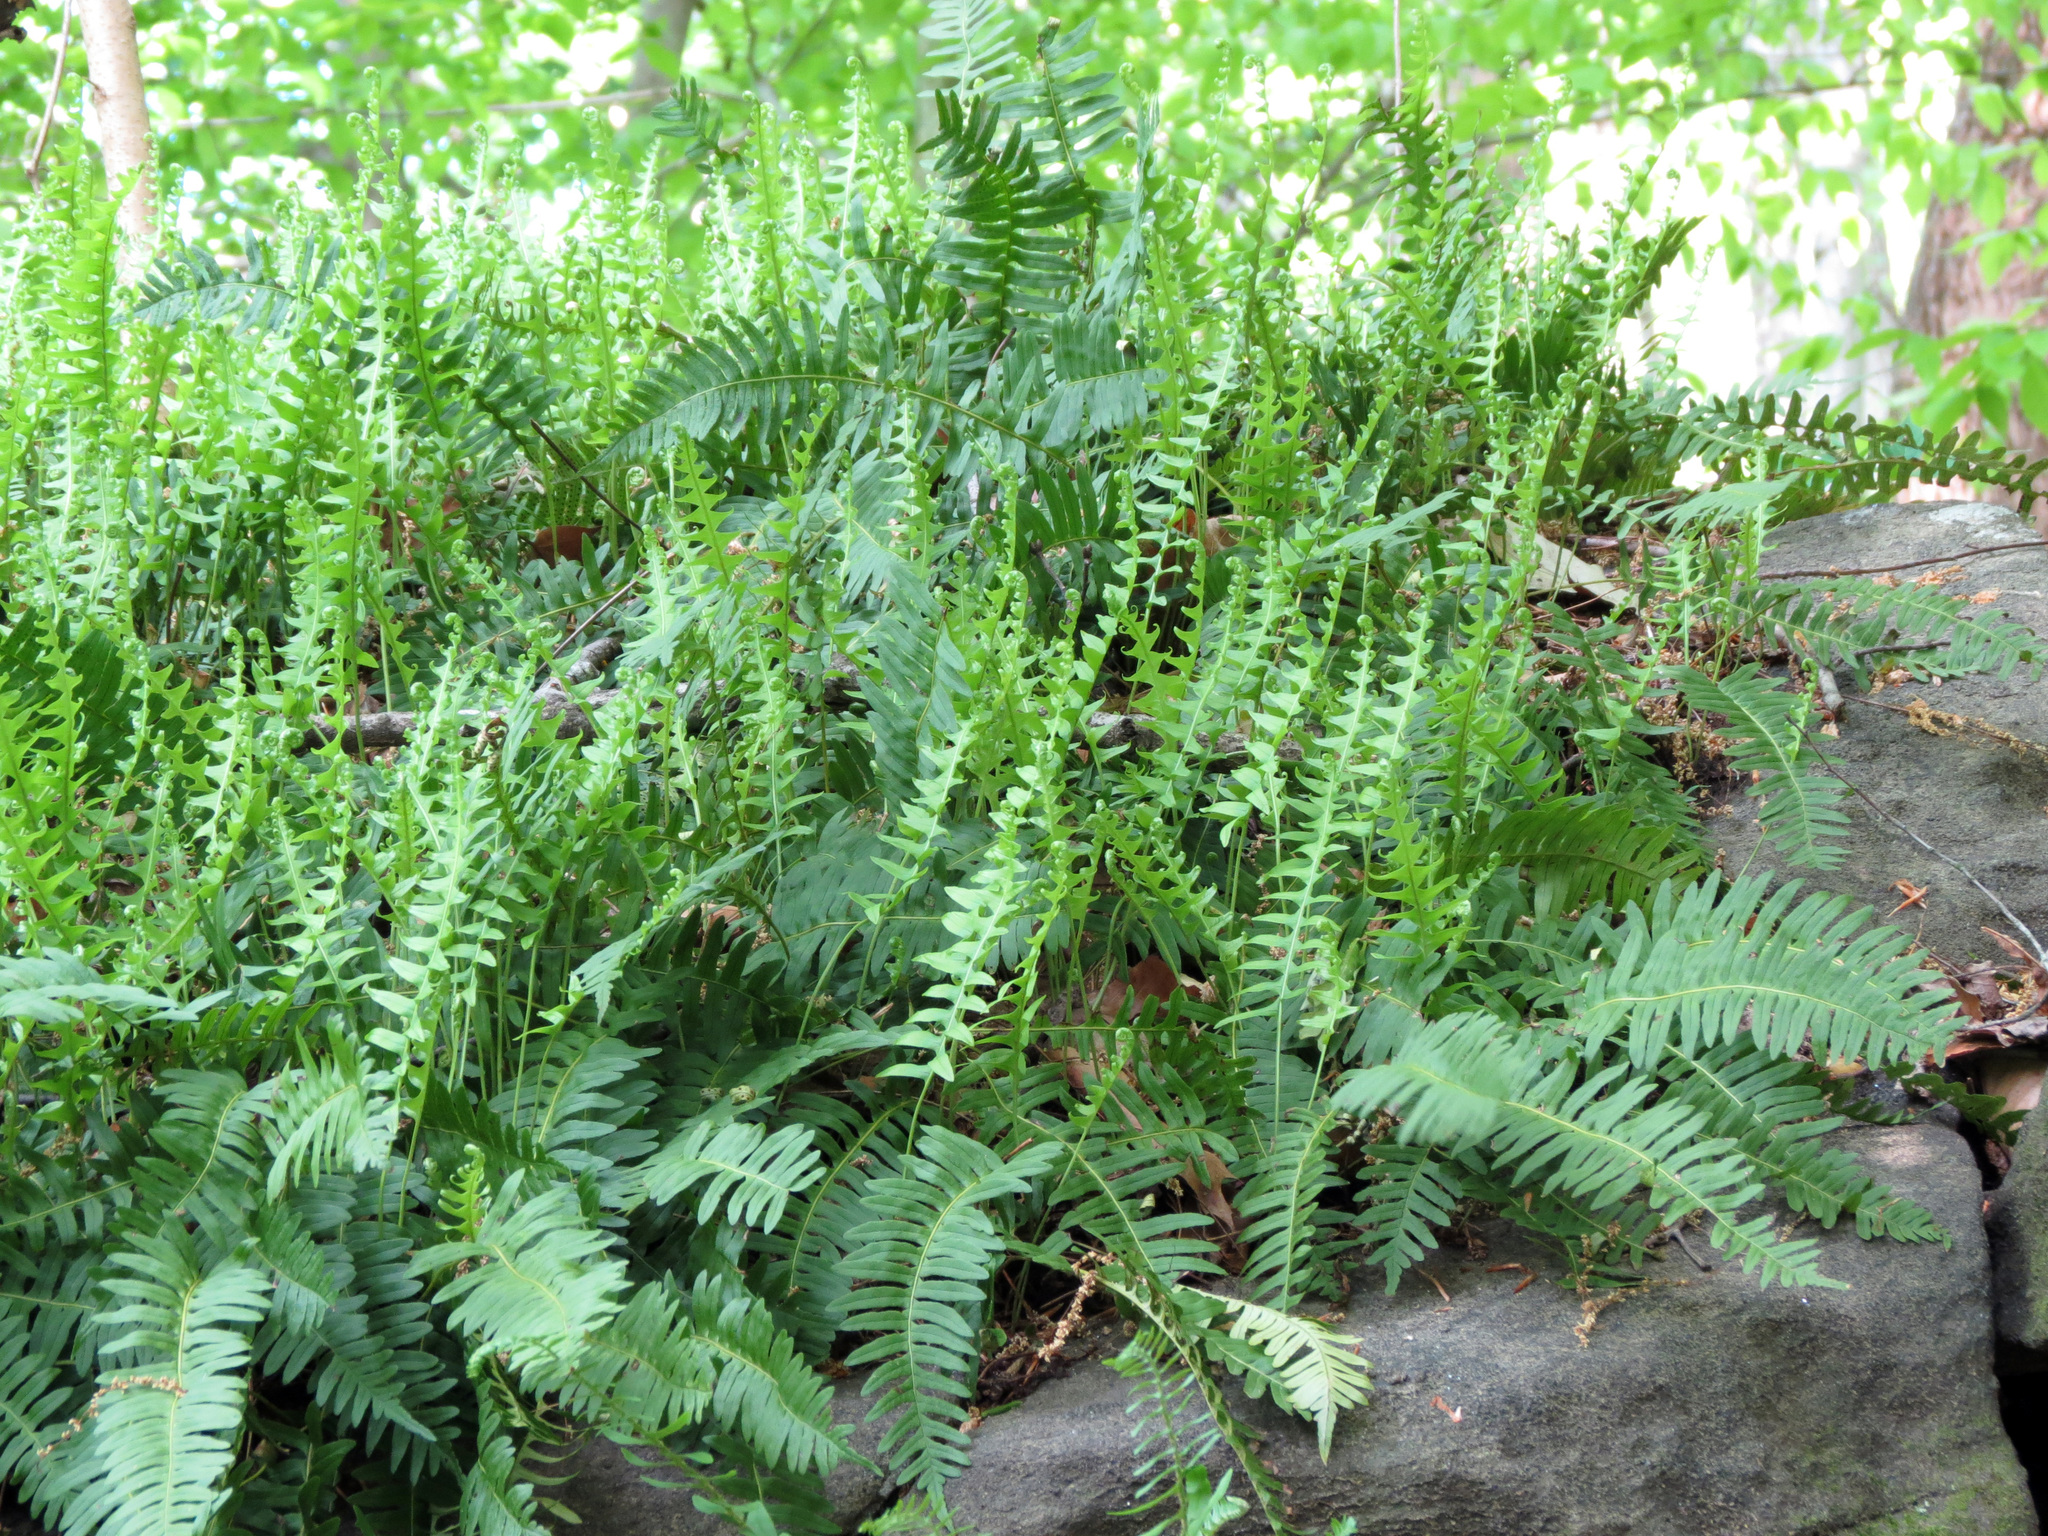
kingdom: Plantae
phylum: Tracheophyta
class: Polypodiopsida
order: Polypodiales
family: Polypodiaceae
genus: Polypodium
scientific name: Polypodium virginianum
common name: American wall fern
